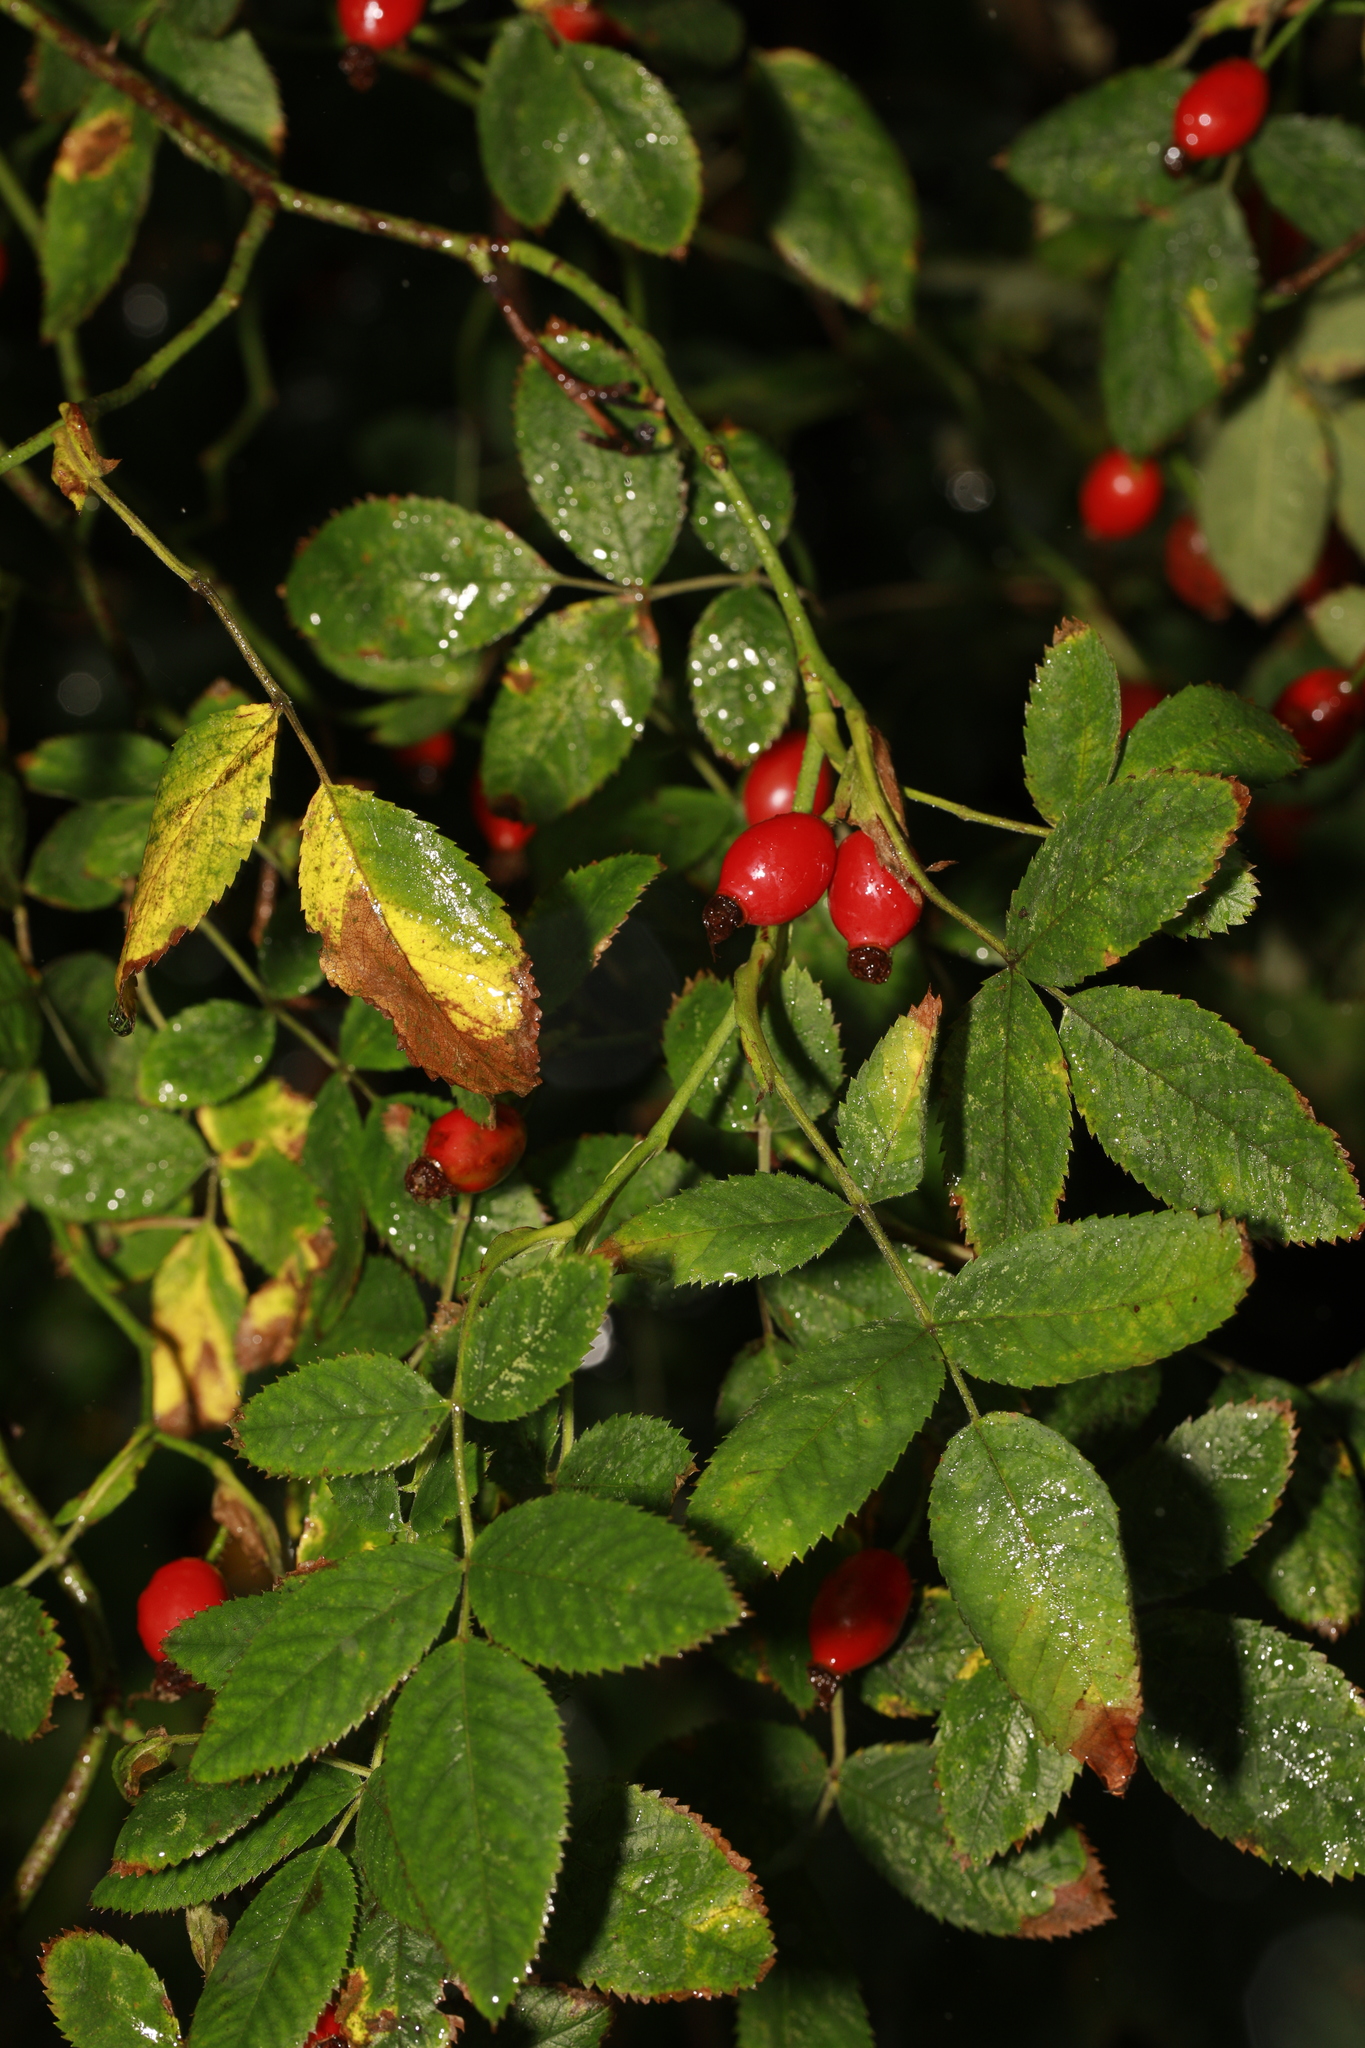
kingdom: Plantae
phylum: Tracheophyta
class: Magnoliopsida
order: Rosales
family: Rosaceae
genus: Rosa
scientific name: Rosa canina
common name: Dog rose
